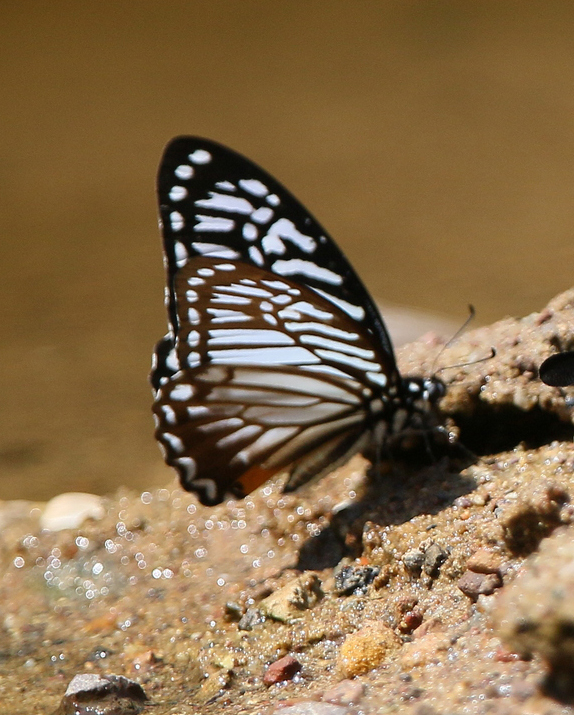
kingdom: Animalia
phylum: Arthropoda
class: Insecta
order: Lepidoptera
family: Papilionidae
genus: Graphium
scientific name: Graphium xenocles
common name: Great zebra
